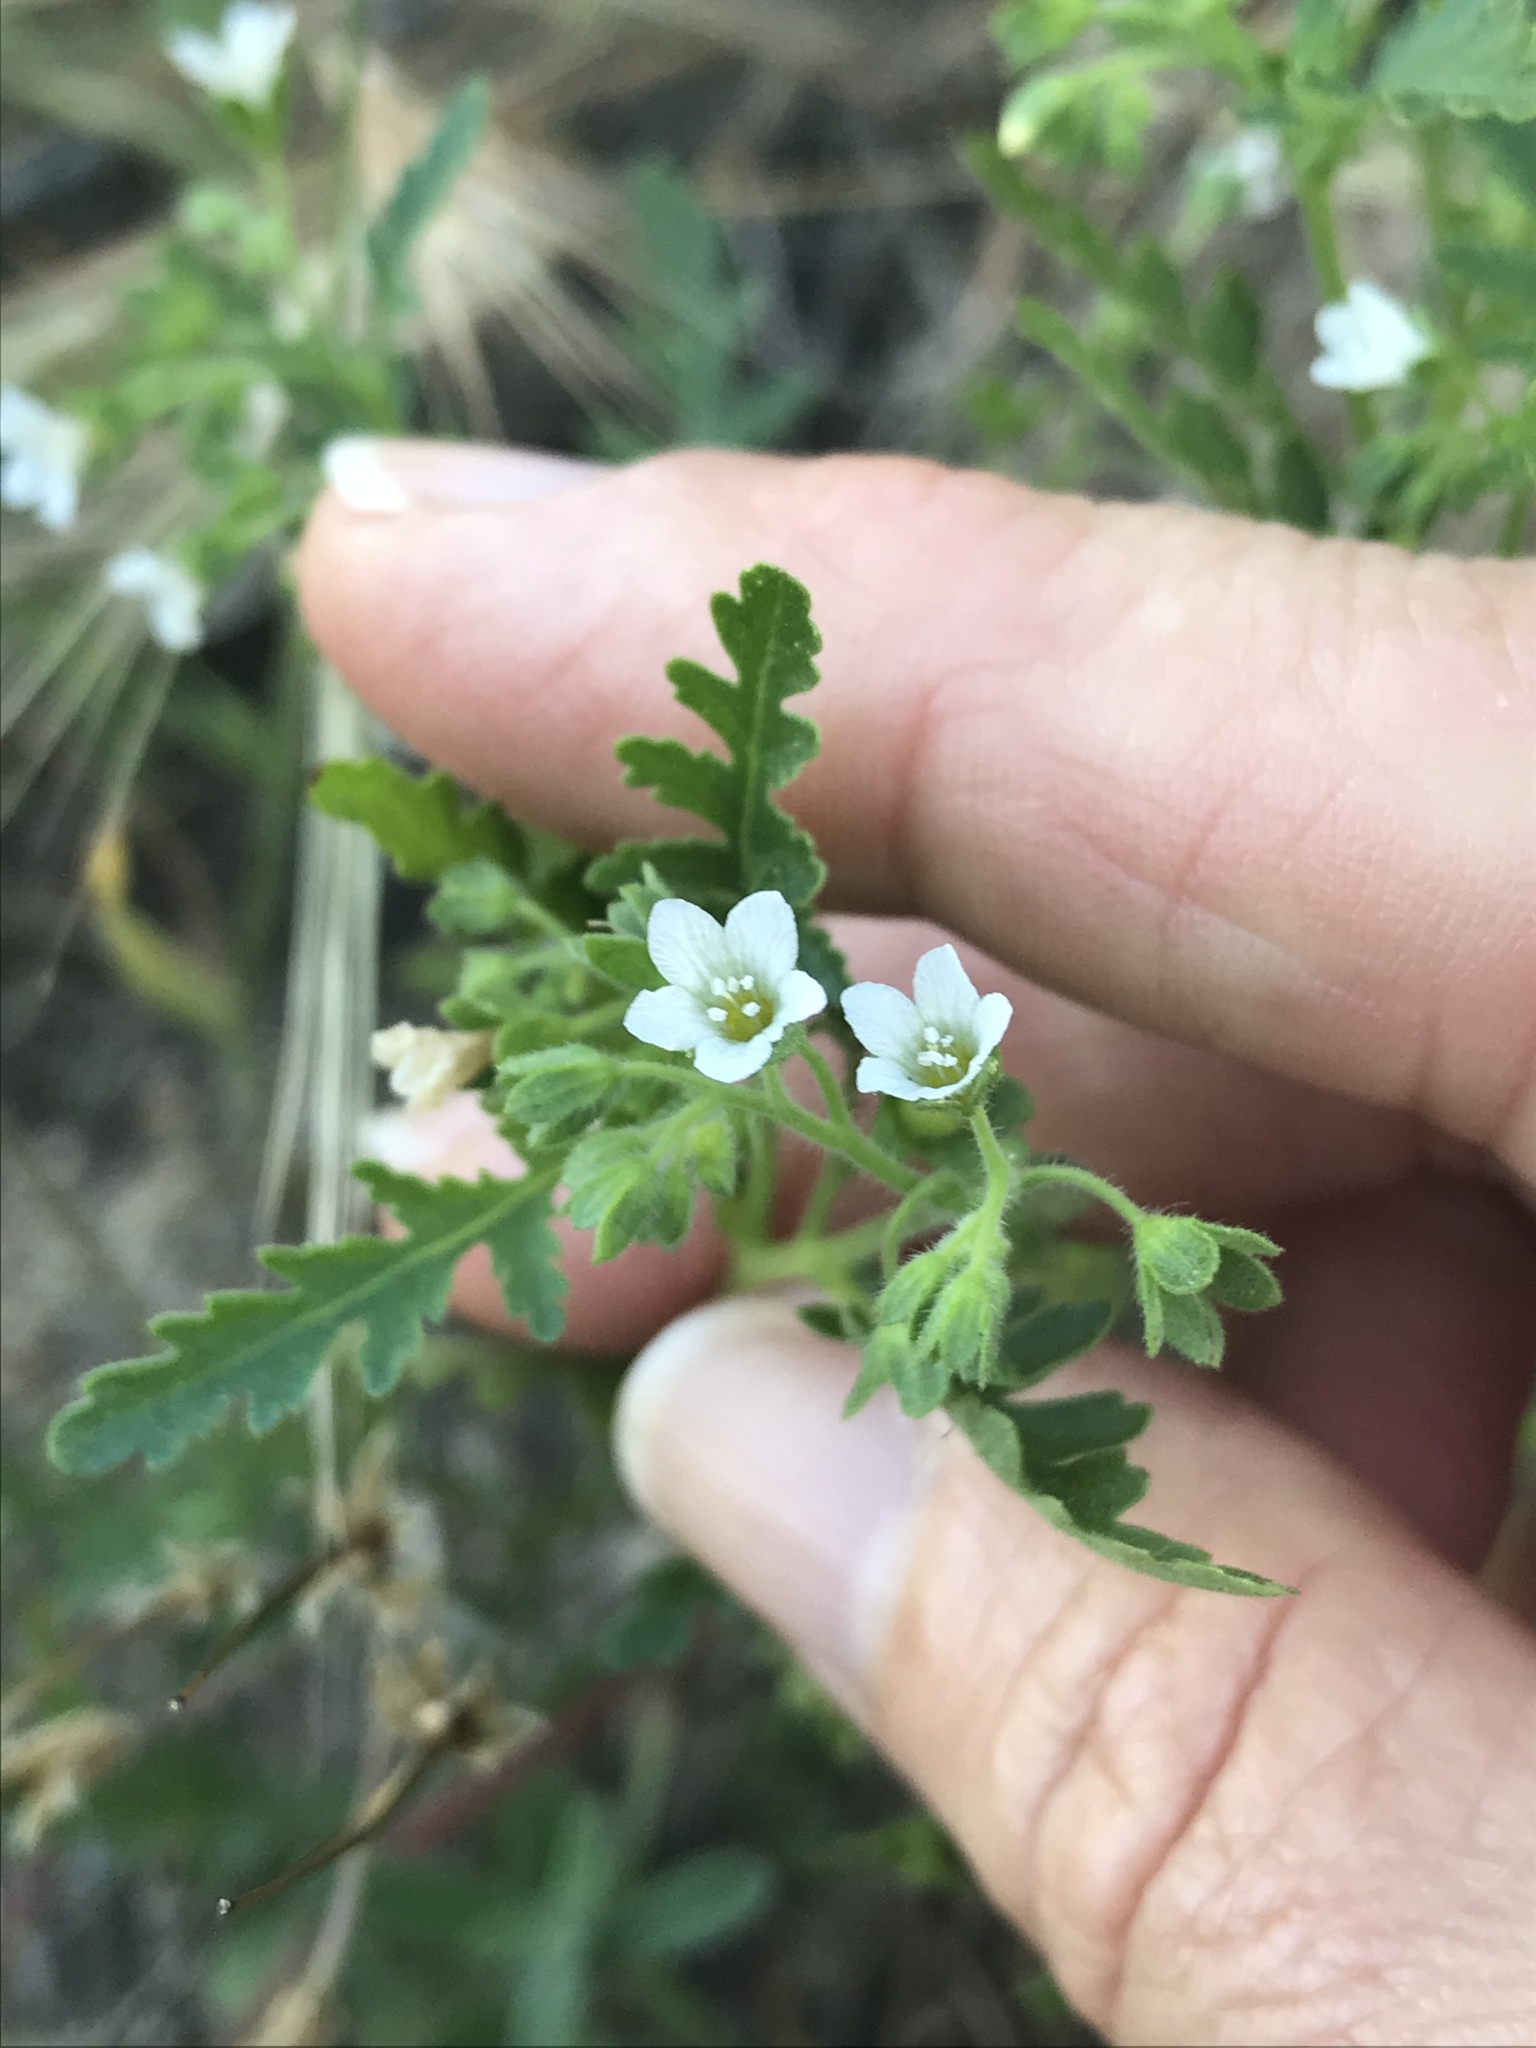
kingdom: Plantae
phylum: Tracheophyta
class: Magnoliopsida
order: Boraginales
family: Hydrophyllaceae
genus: Eucrypta
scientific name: Eucrypta chrysanthemifolia
